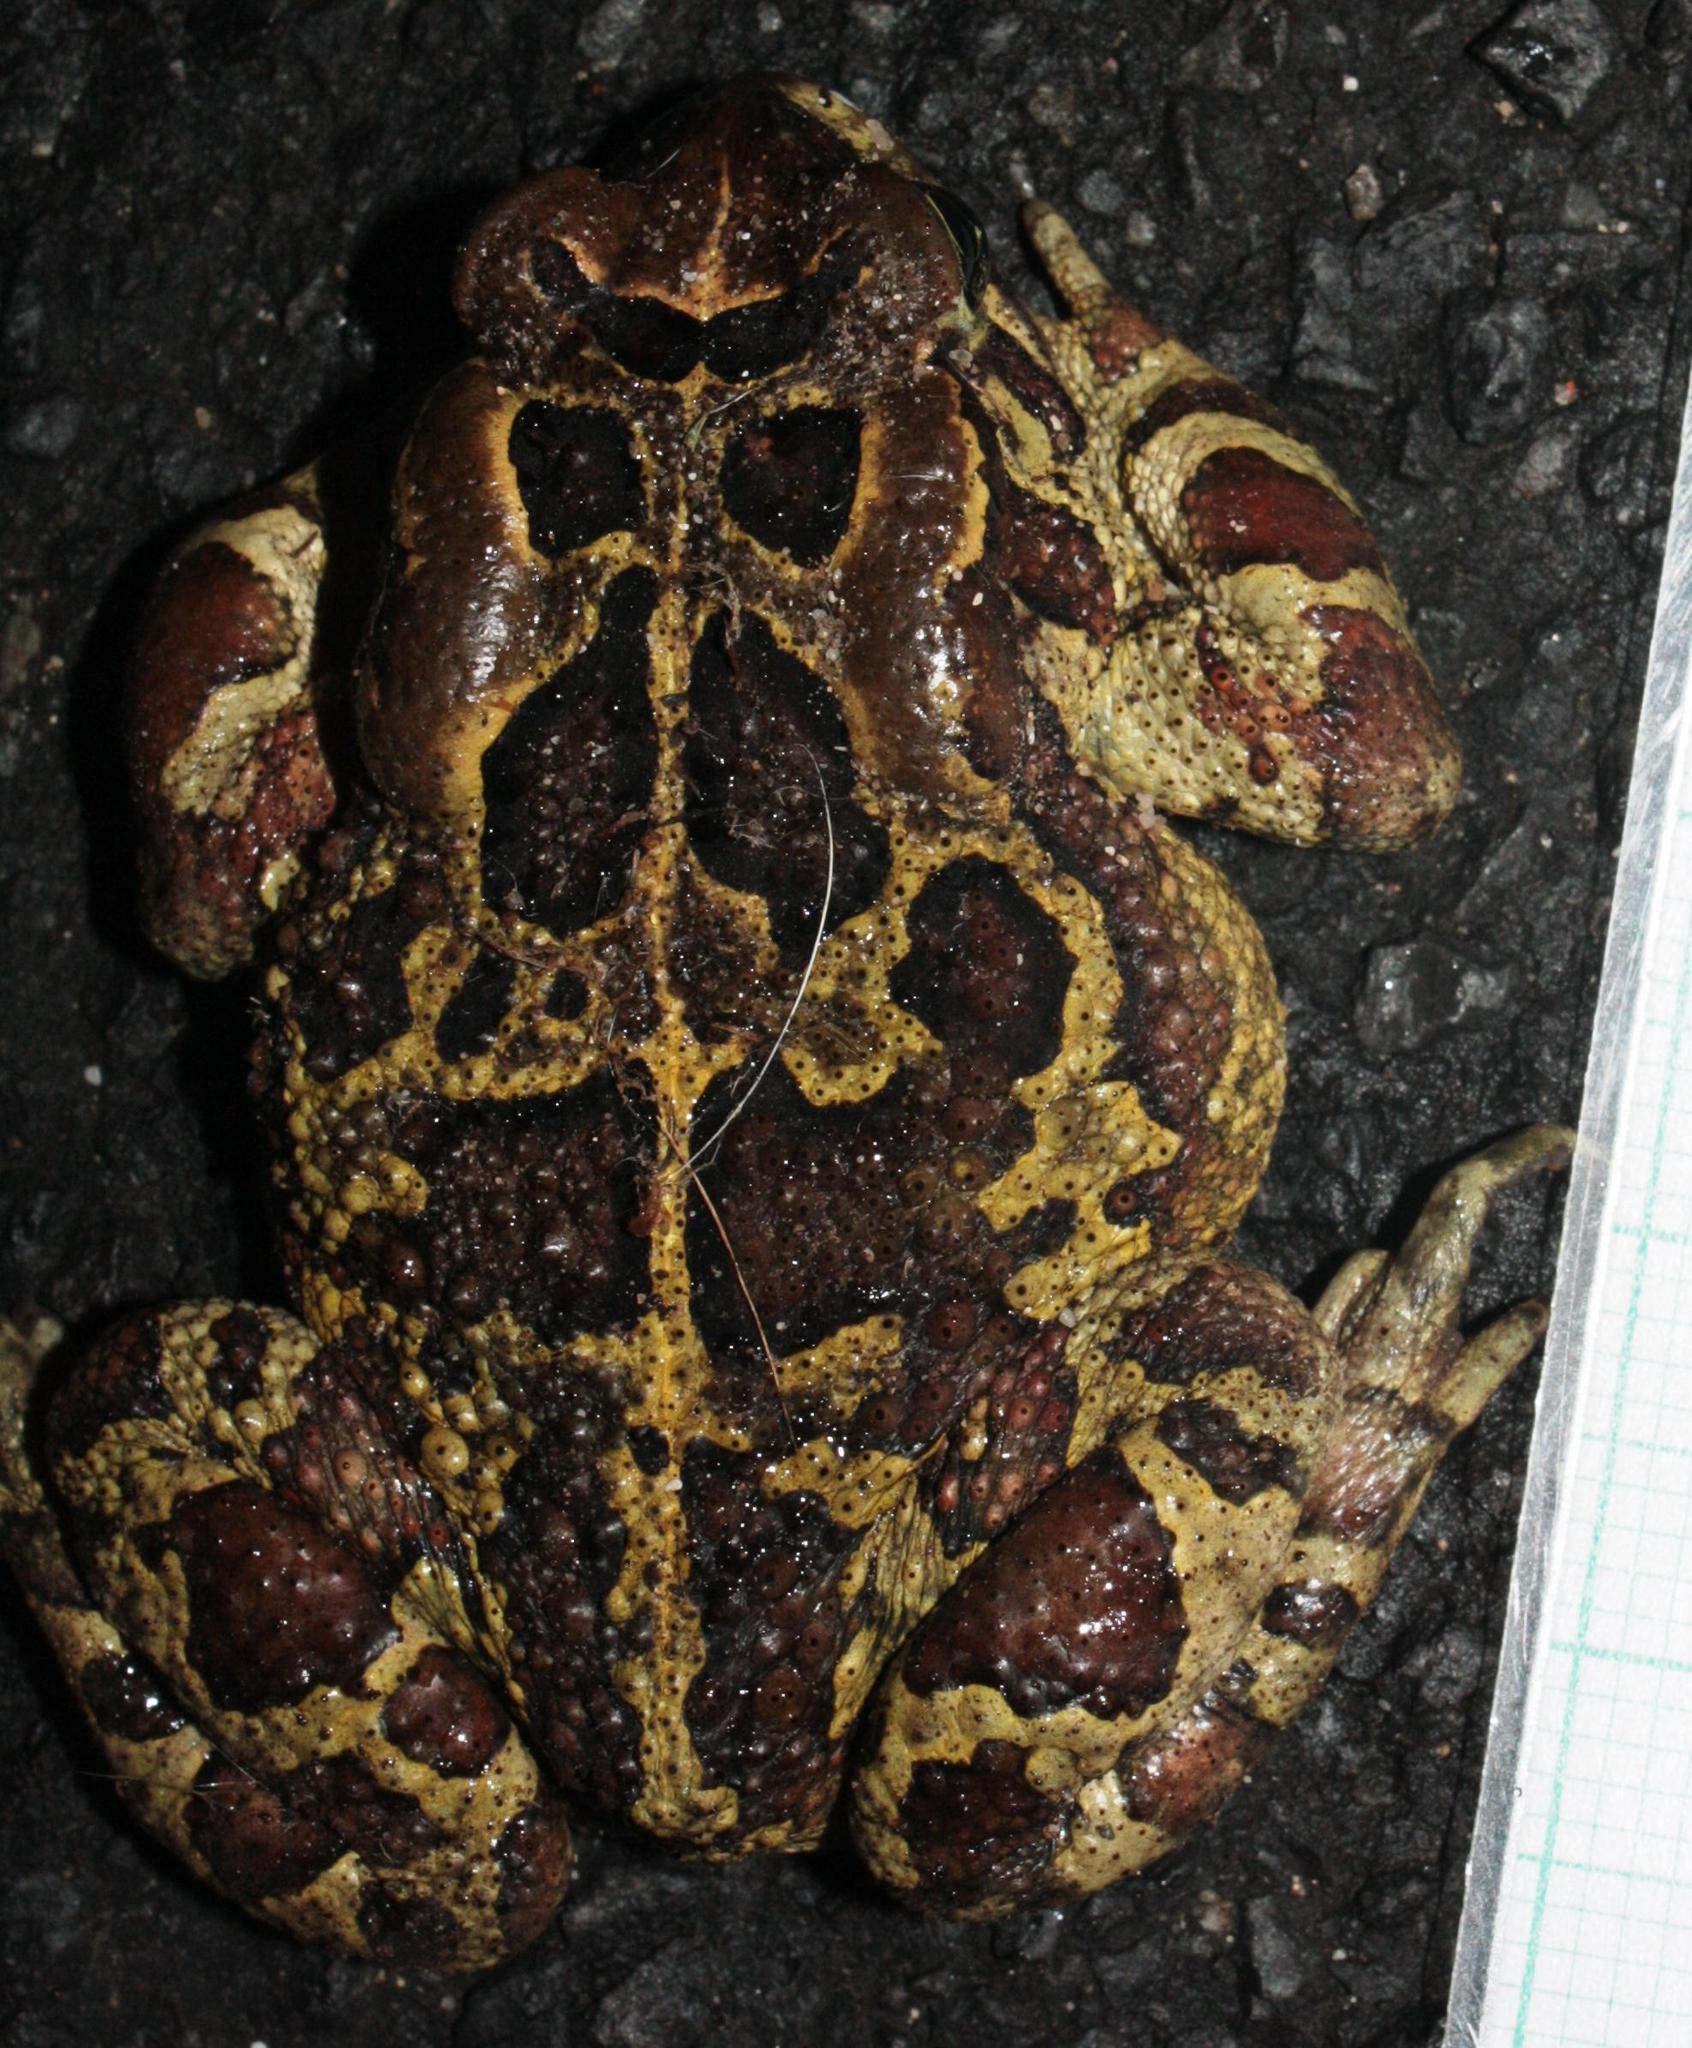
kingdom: Animalia
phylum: Chordata
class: Amphibia
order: Anura
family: Bufonidae
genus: Sclerophrys
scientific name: Sclerophrys pantherina
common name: Panther toad
